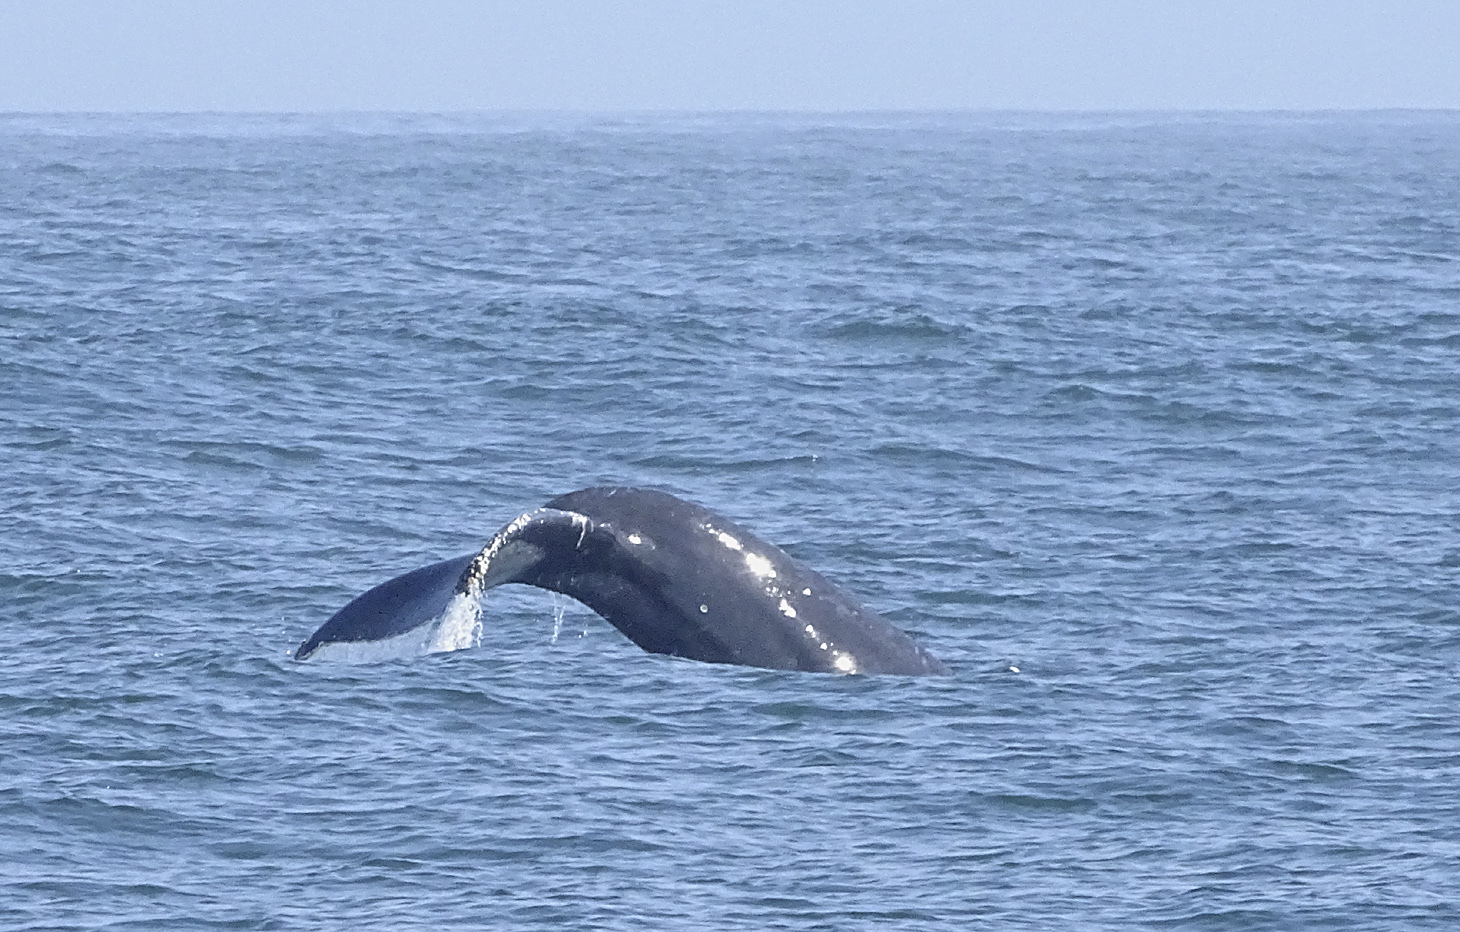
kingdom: Animalia
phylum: Chordata
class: Mammalia
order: Cetacea
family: Balaenopteridae
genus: Megaptera
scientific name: Megaptera novaeangliae
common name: Humpback whale
